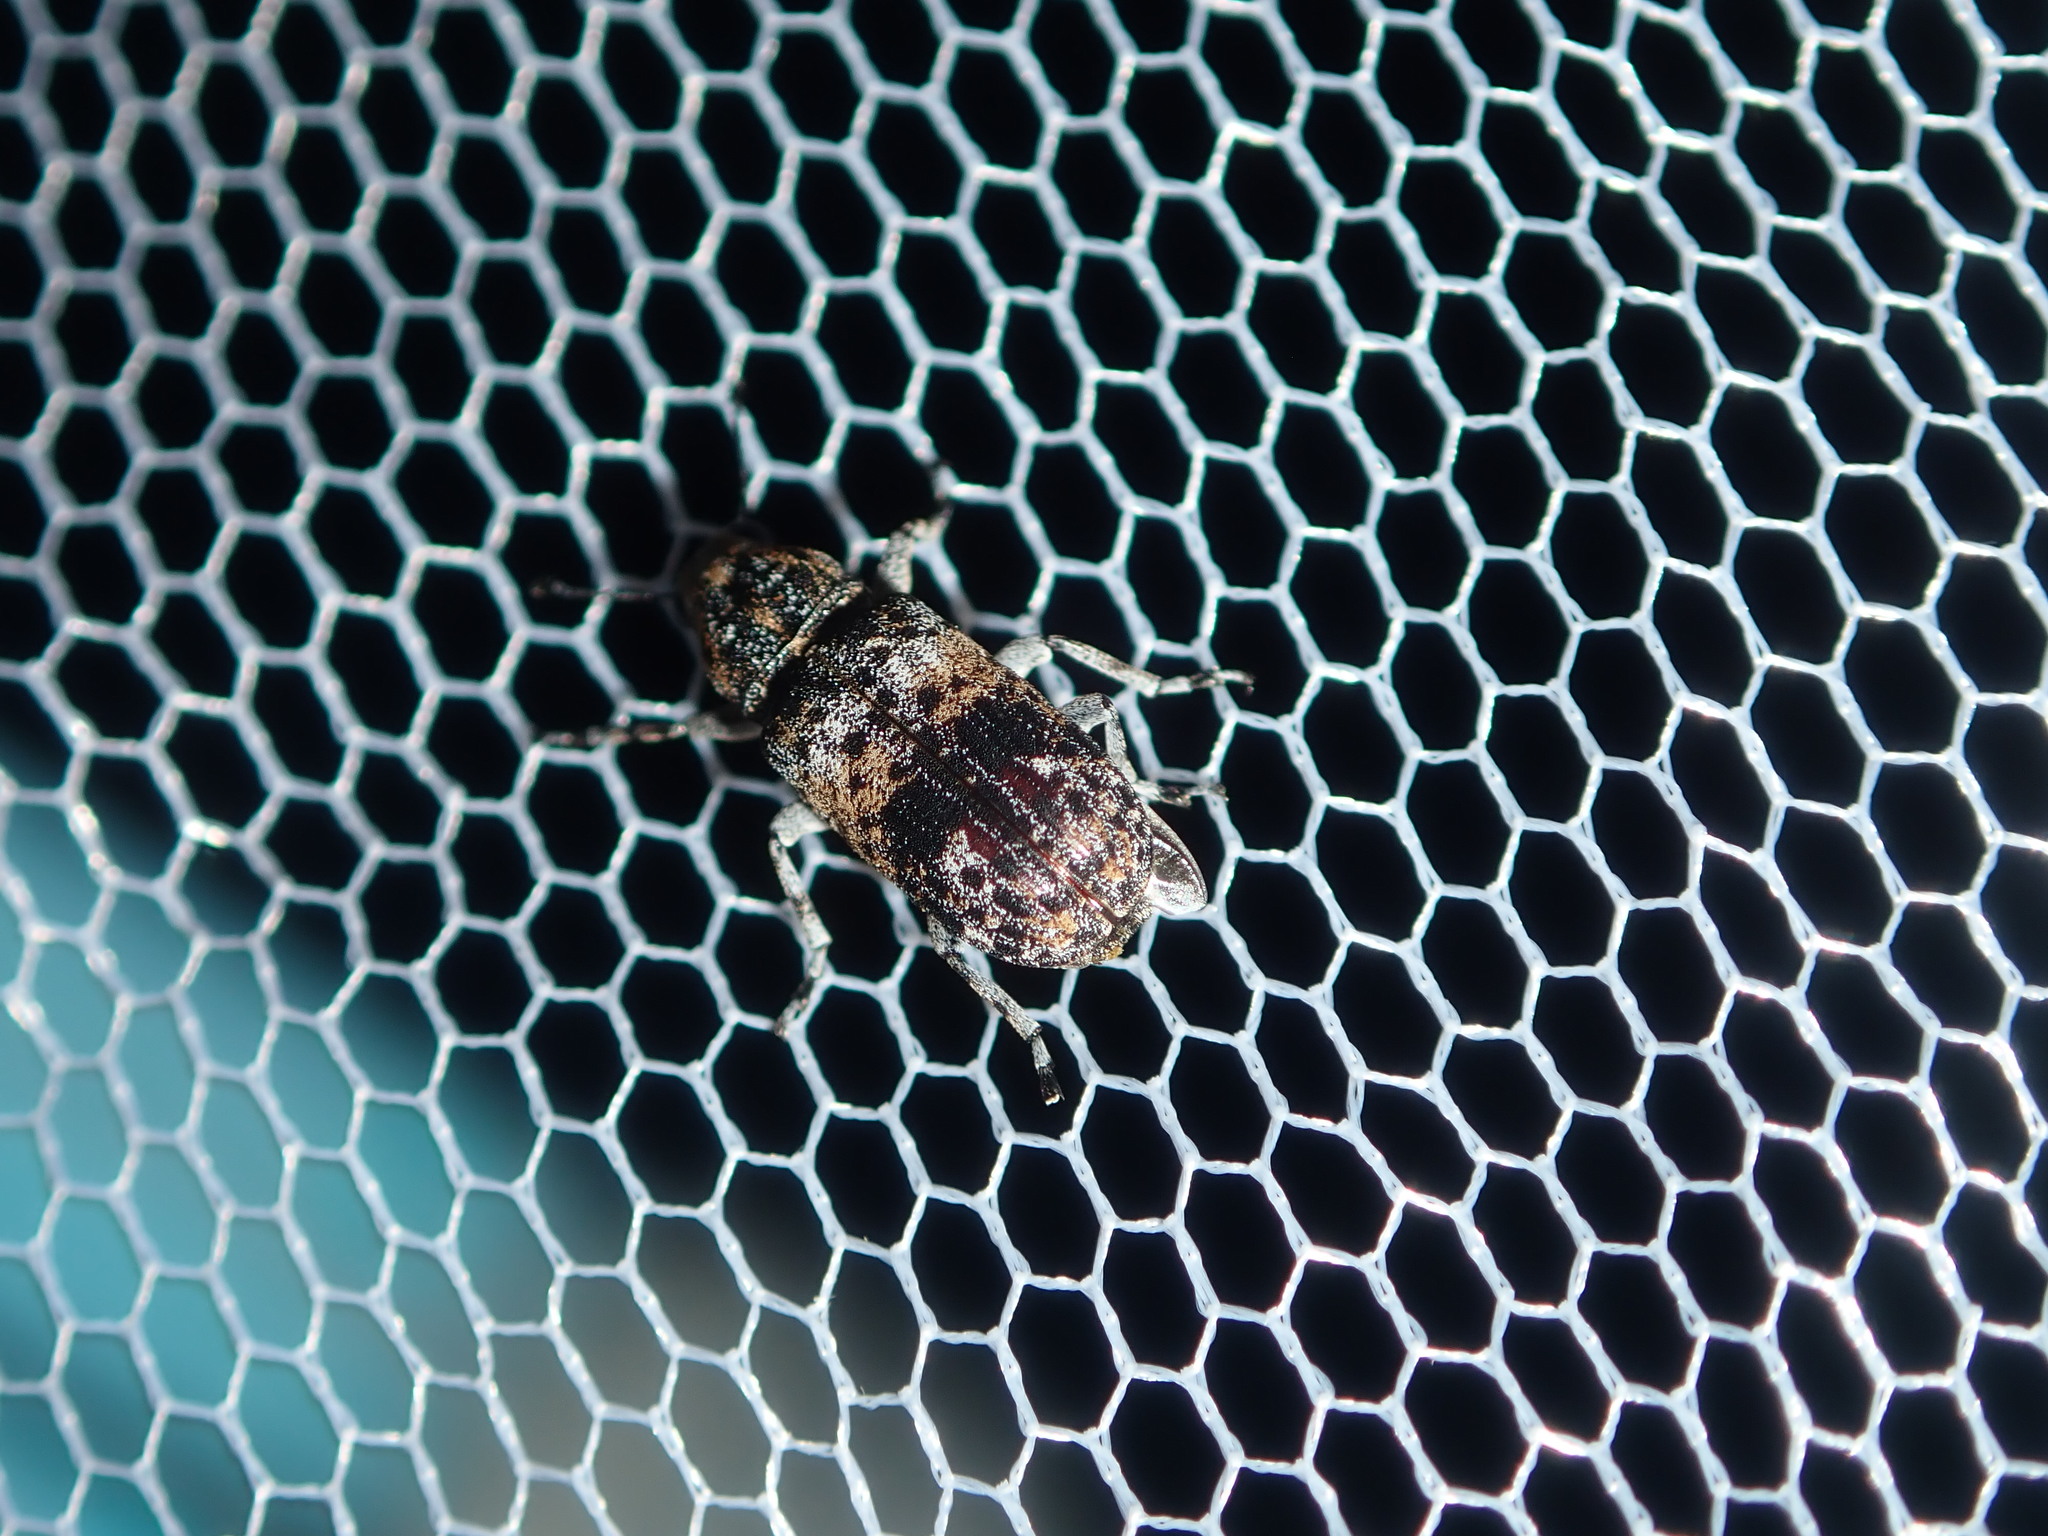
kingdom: Animalia
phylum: Arthropoda
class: Insecta
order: Coleoptera
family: Anthribidae
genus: Ecelonerus
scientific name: Ecelonerus subfasciatus
